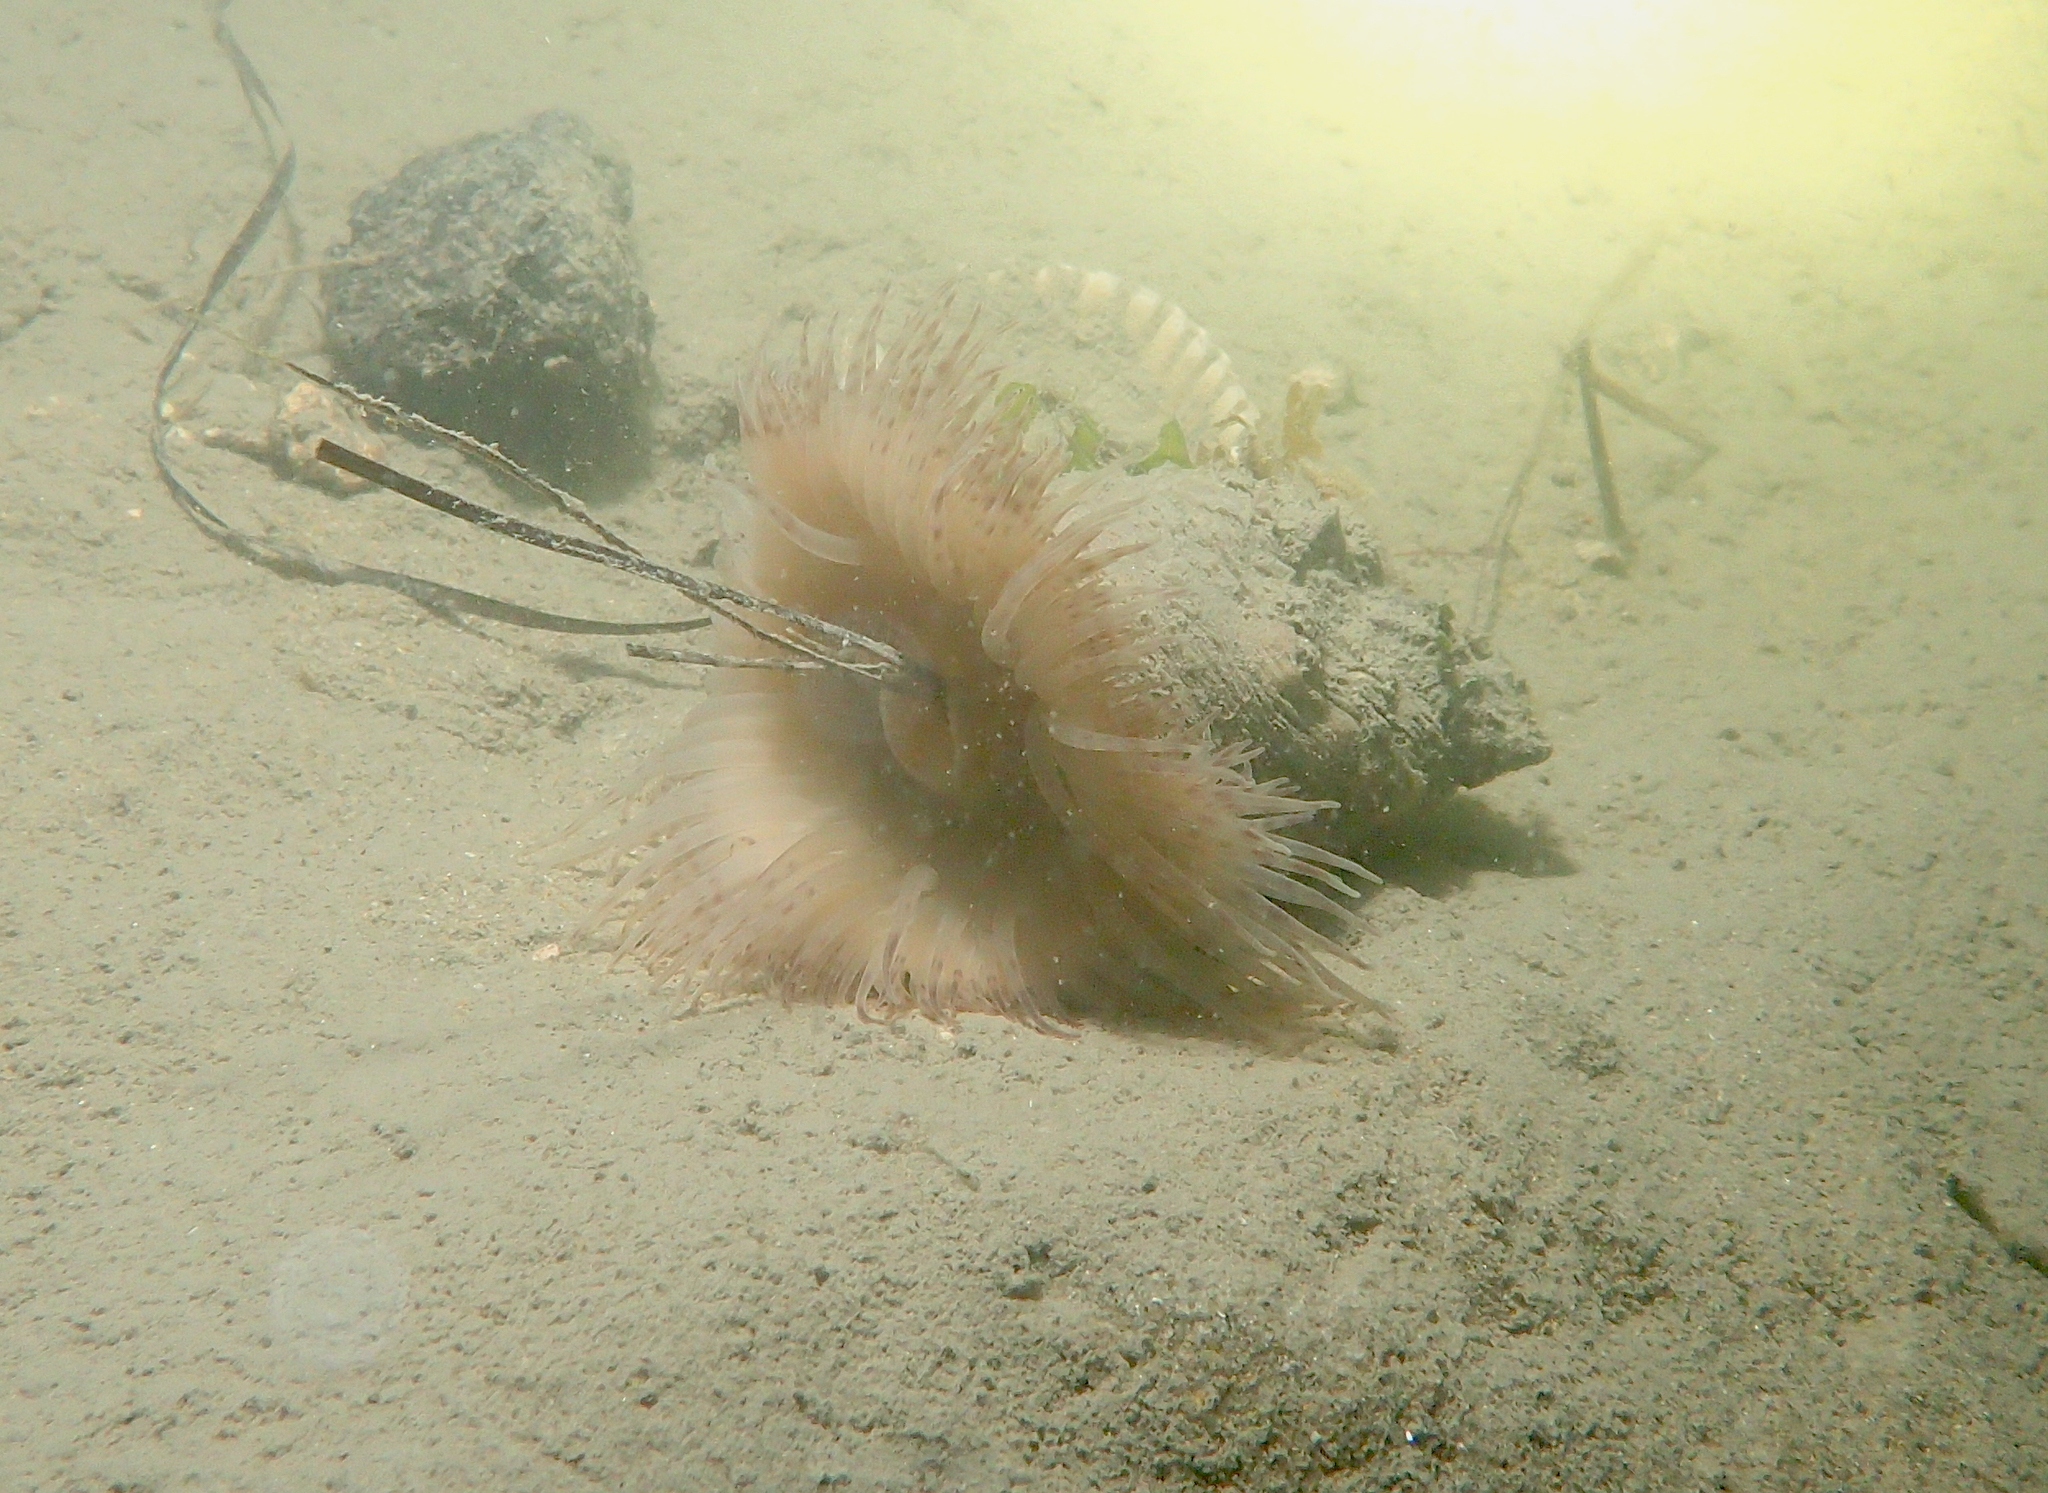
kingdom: Animalia
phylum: Cnidaria
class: Anthozoa
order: Actiniaria
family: Hormathiidae
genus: Calliactis
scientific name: Calliactis parasitica
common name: Parasitic anemone
